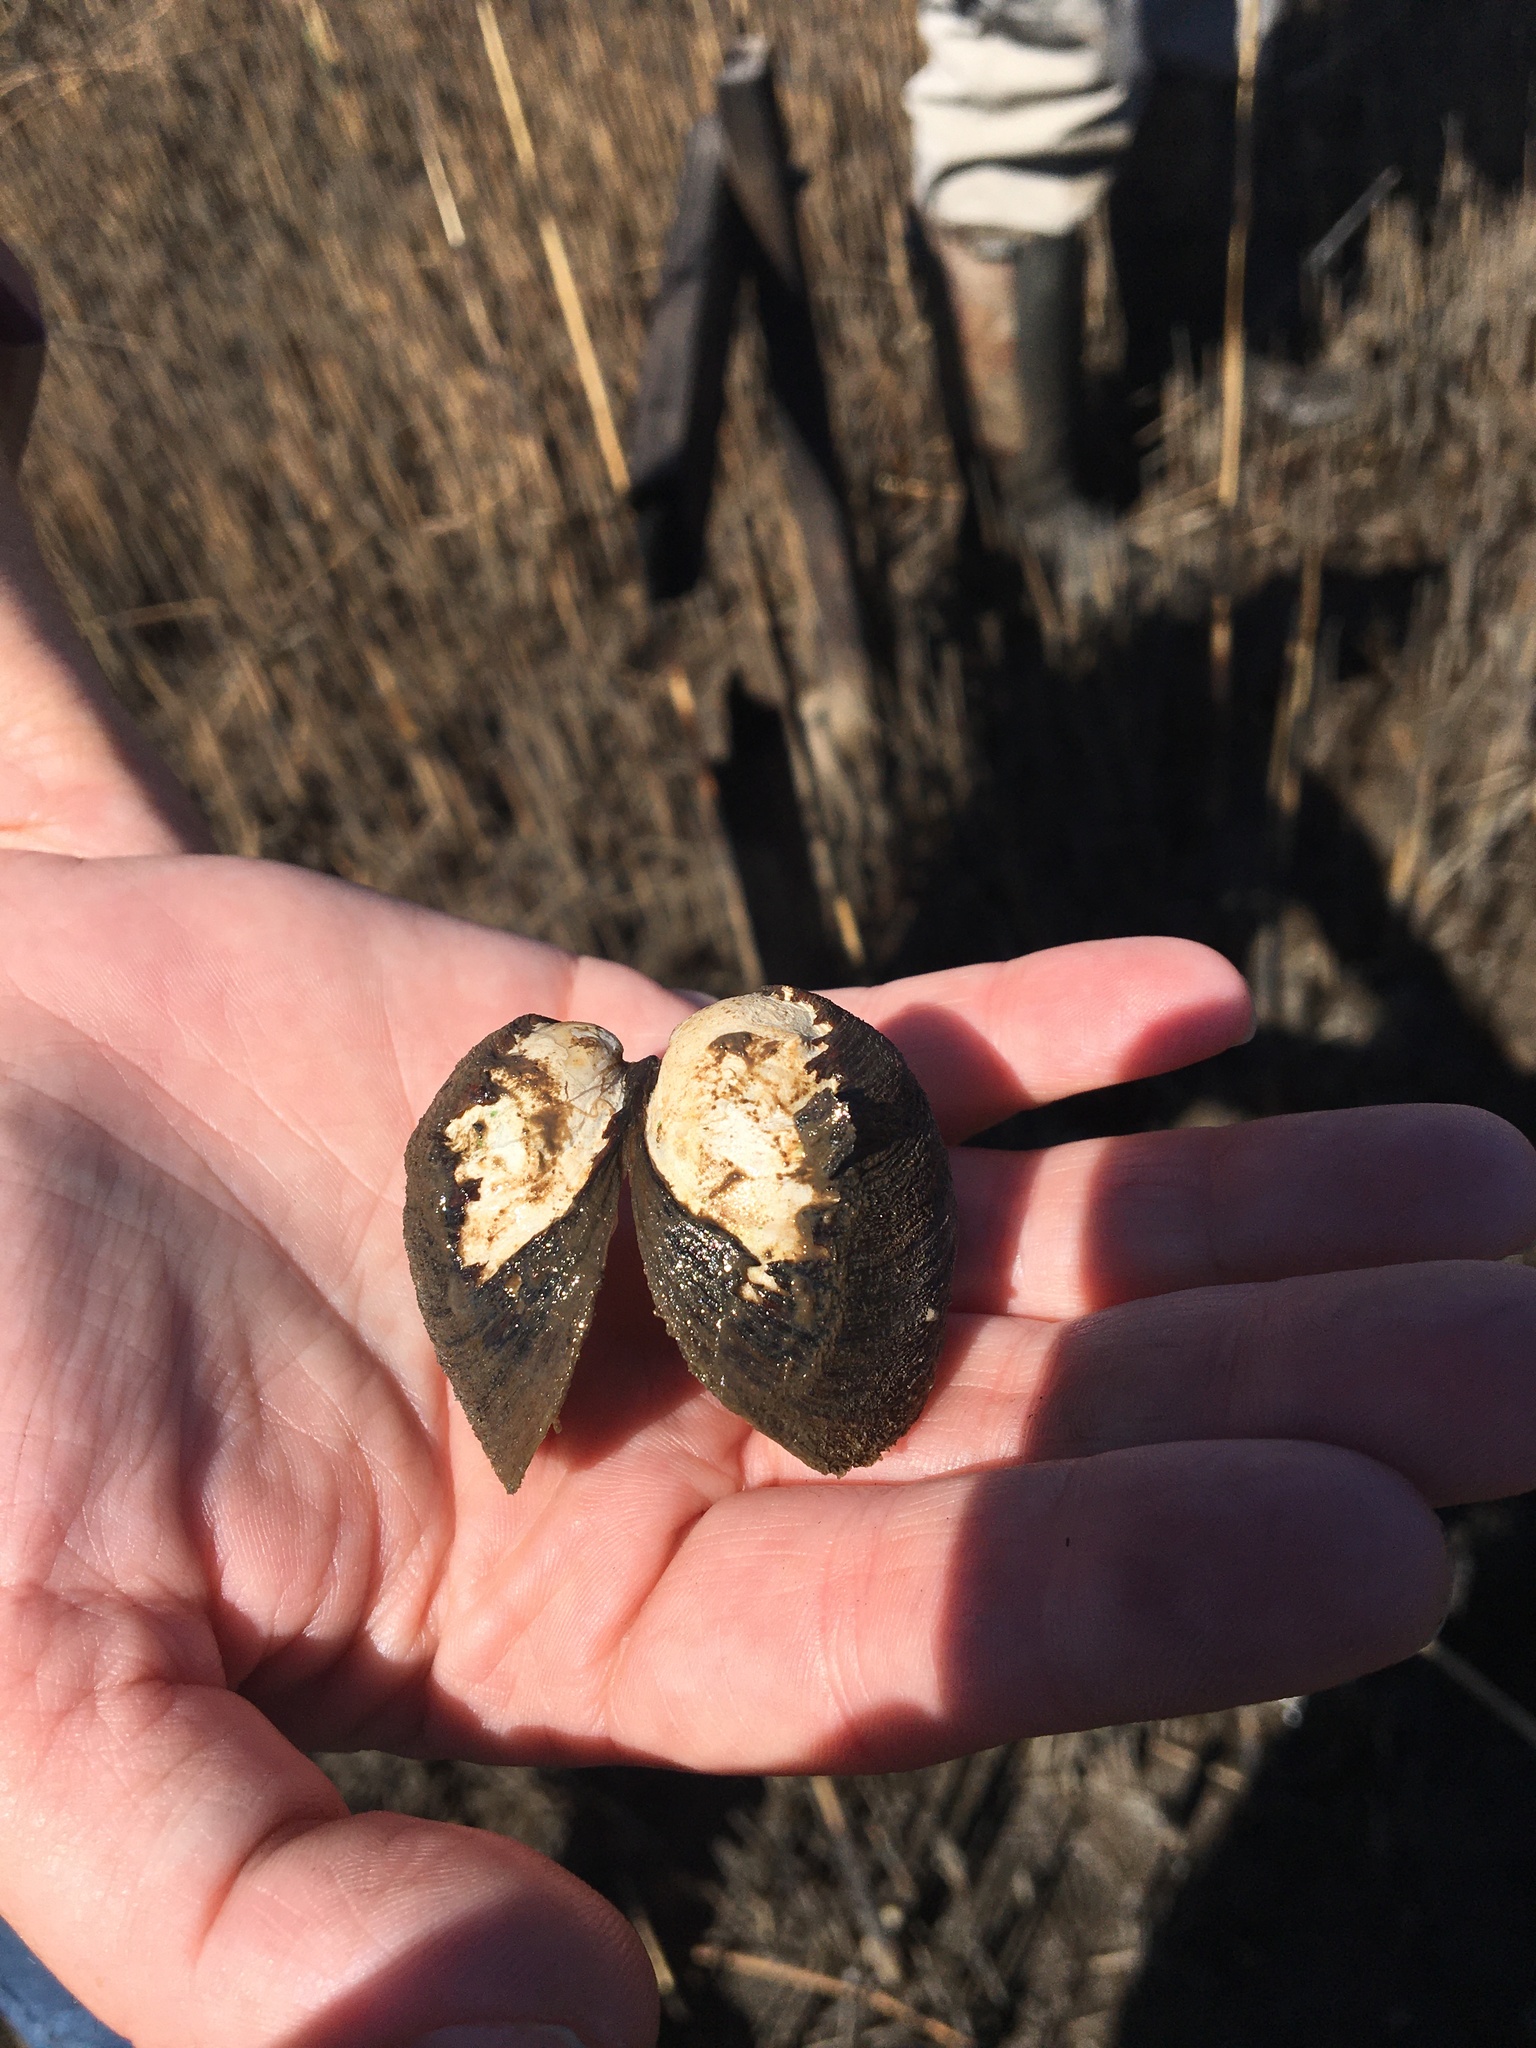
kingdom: Animalia
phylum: Mollusca
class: Bivalvia
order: Venerida
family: Cyrenidae
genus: Polymesoda
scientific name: Polymesoda caroliniana
